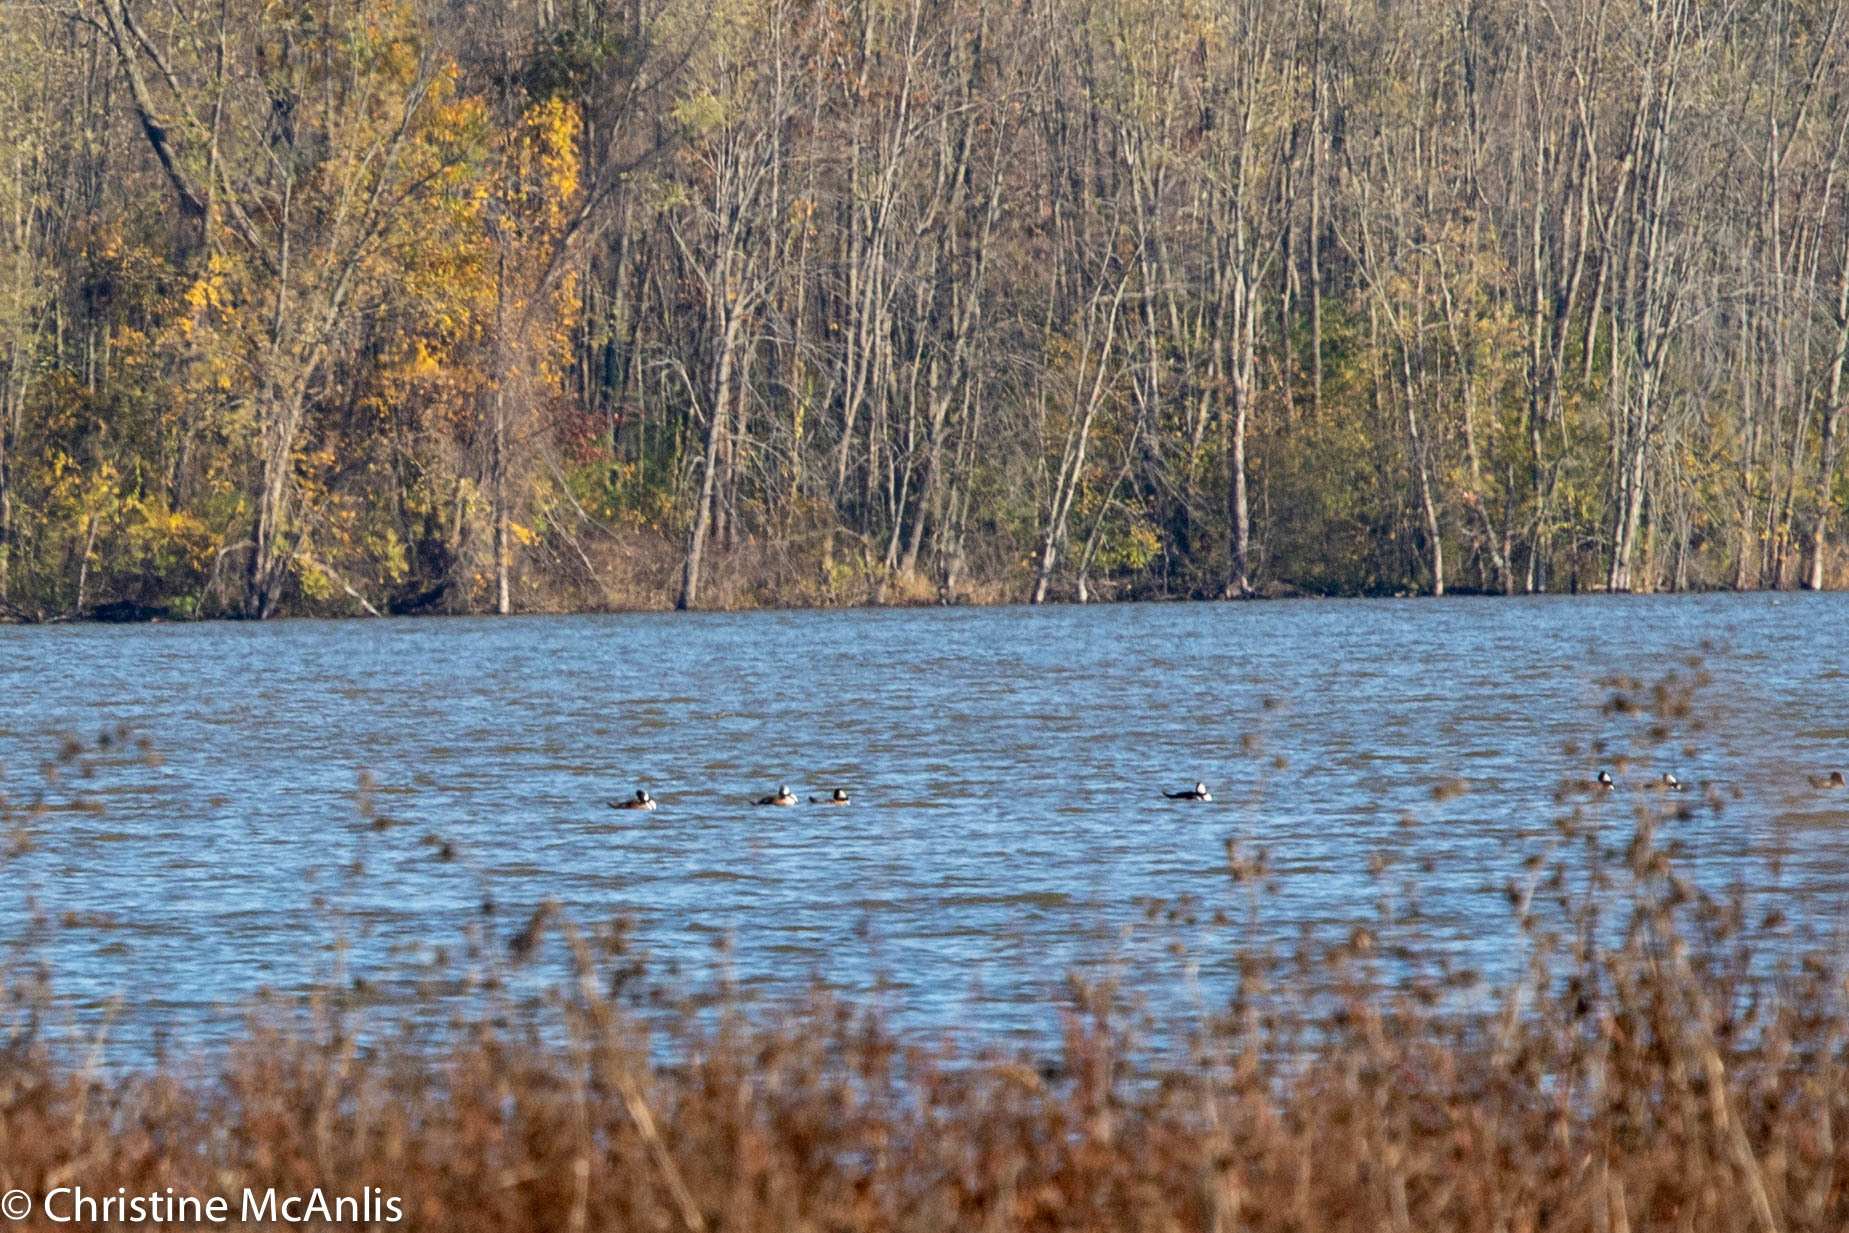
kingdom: Animalia
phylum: Chordata
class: Aves
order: Anseriformes
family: Anatidae
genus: Lophodytes
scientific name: Lophodytes cucullatus
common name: Hooded merganser
